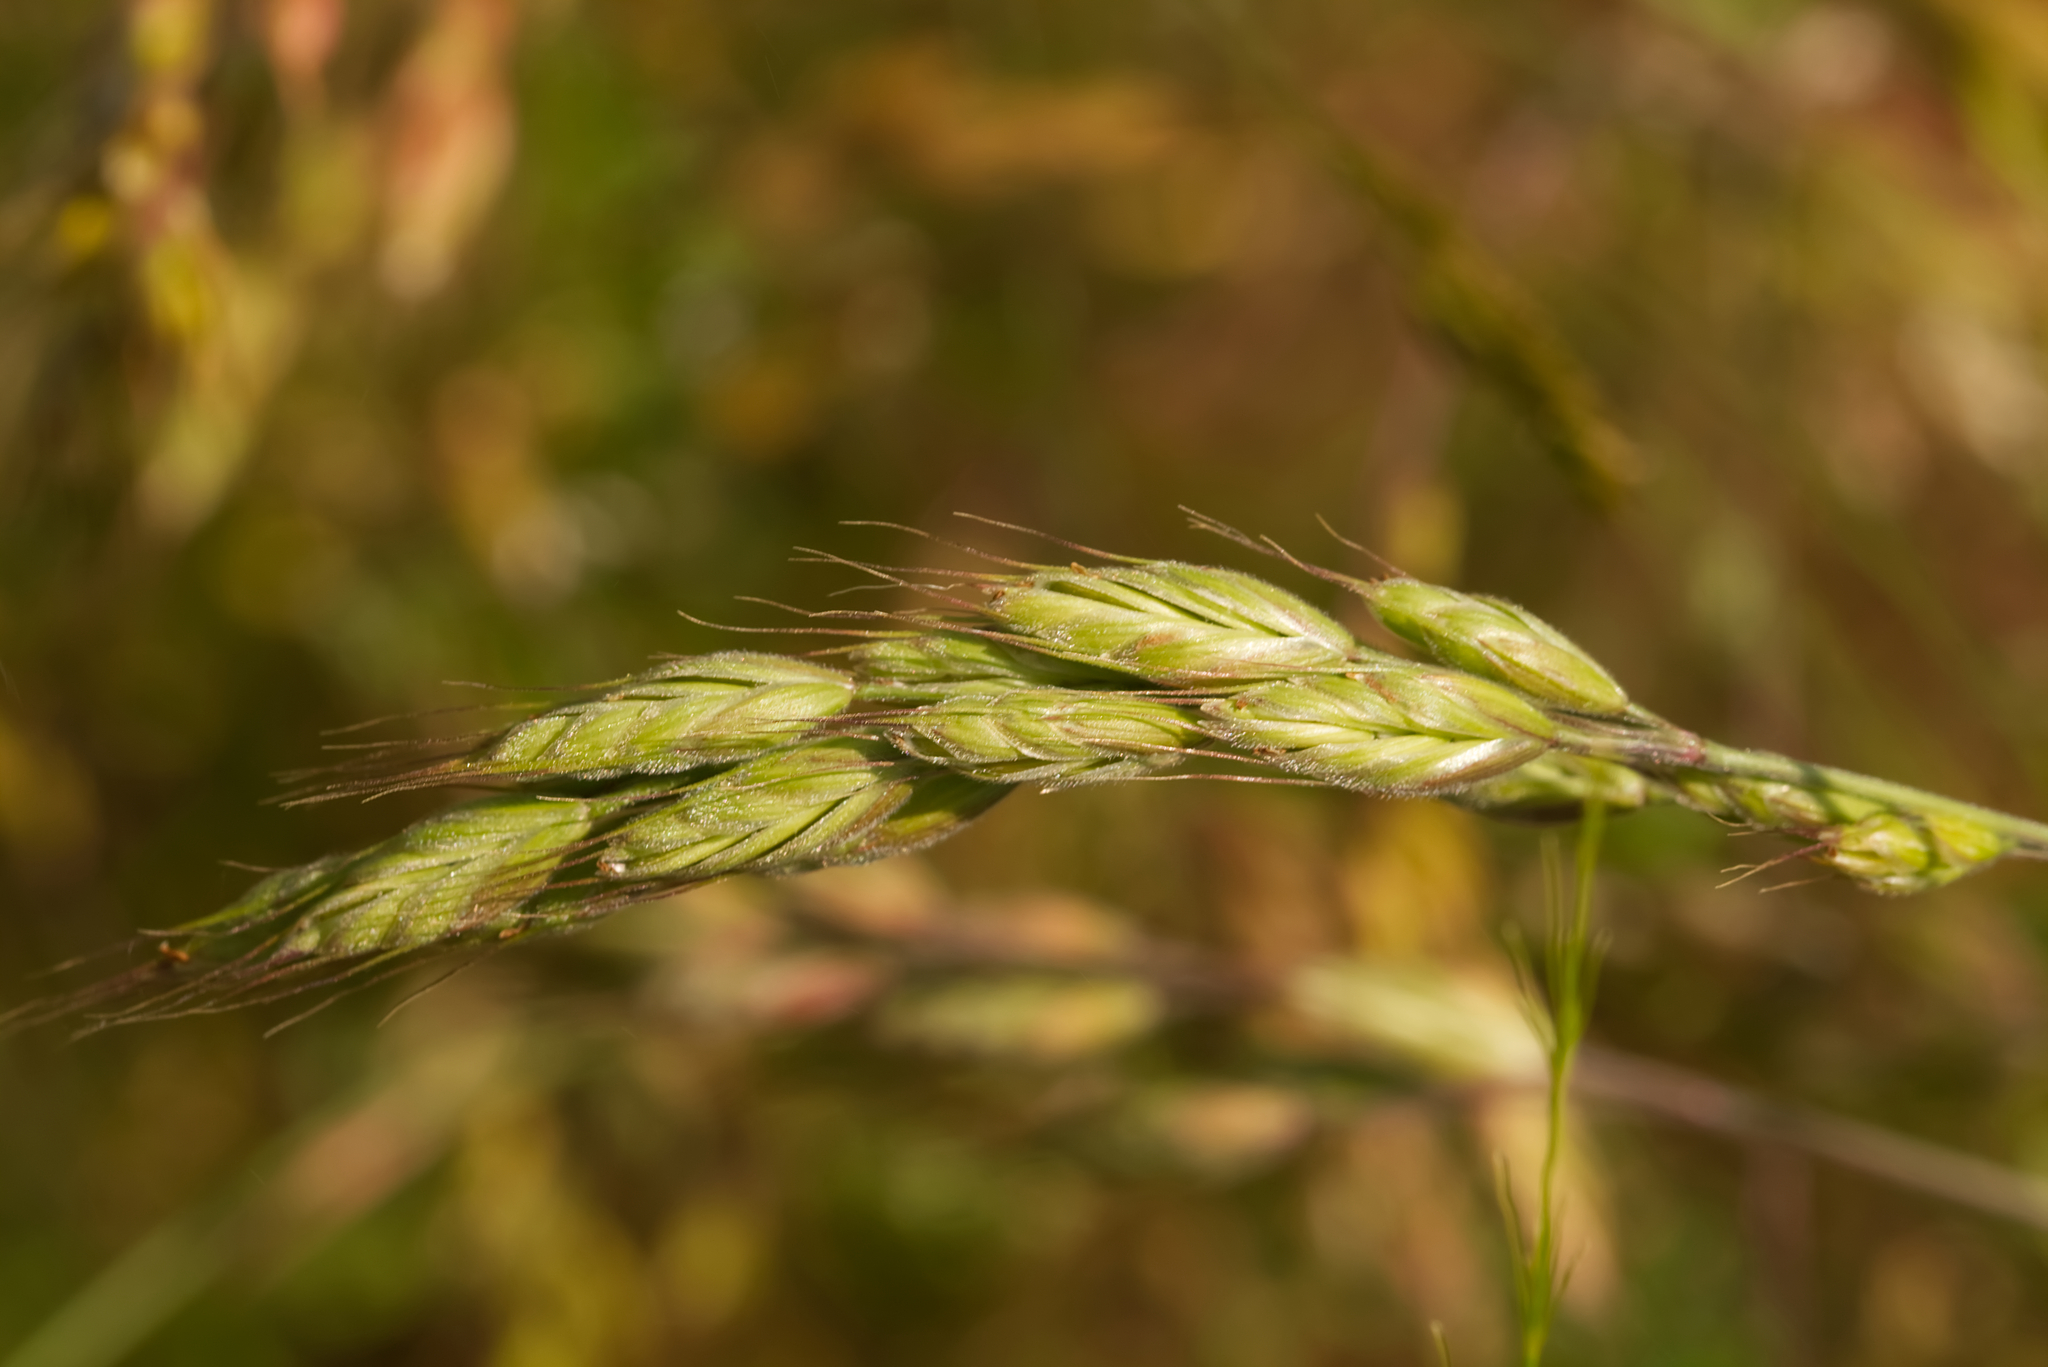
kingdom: Plantae
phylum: Tracheophyta
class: Liliopsida
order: Poales
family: Poaceae
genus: Bromus
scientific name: Bromus hordeaceus
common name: Soft brome
